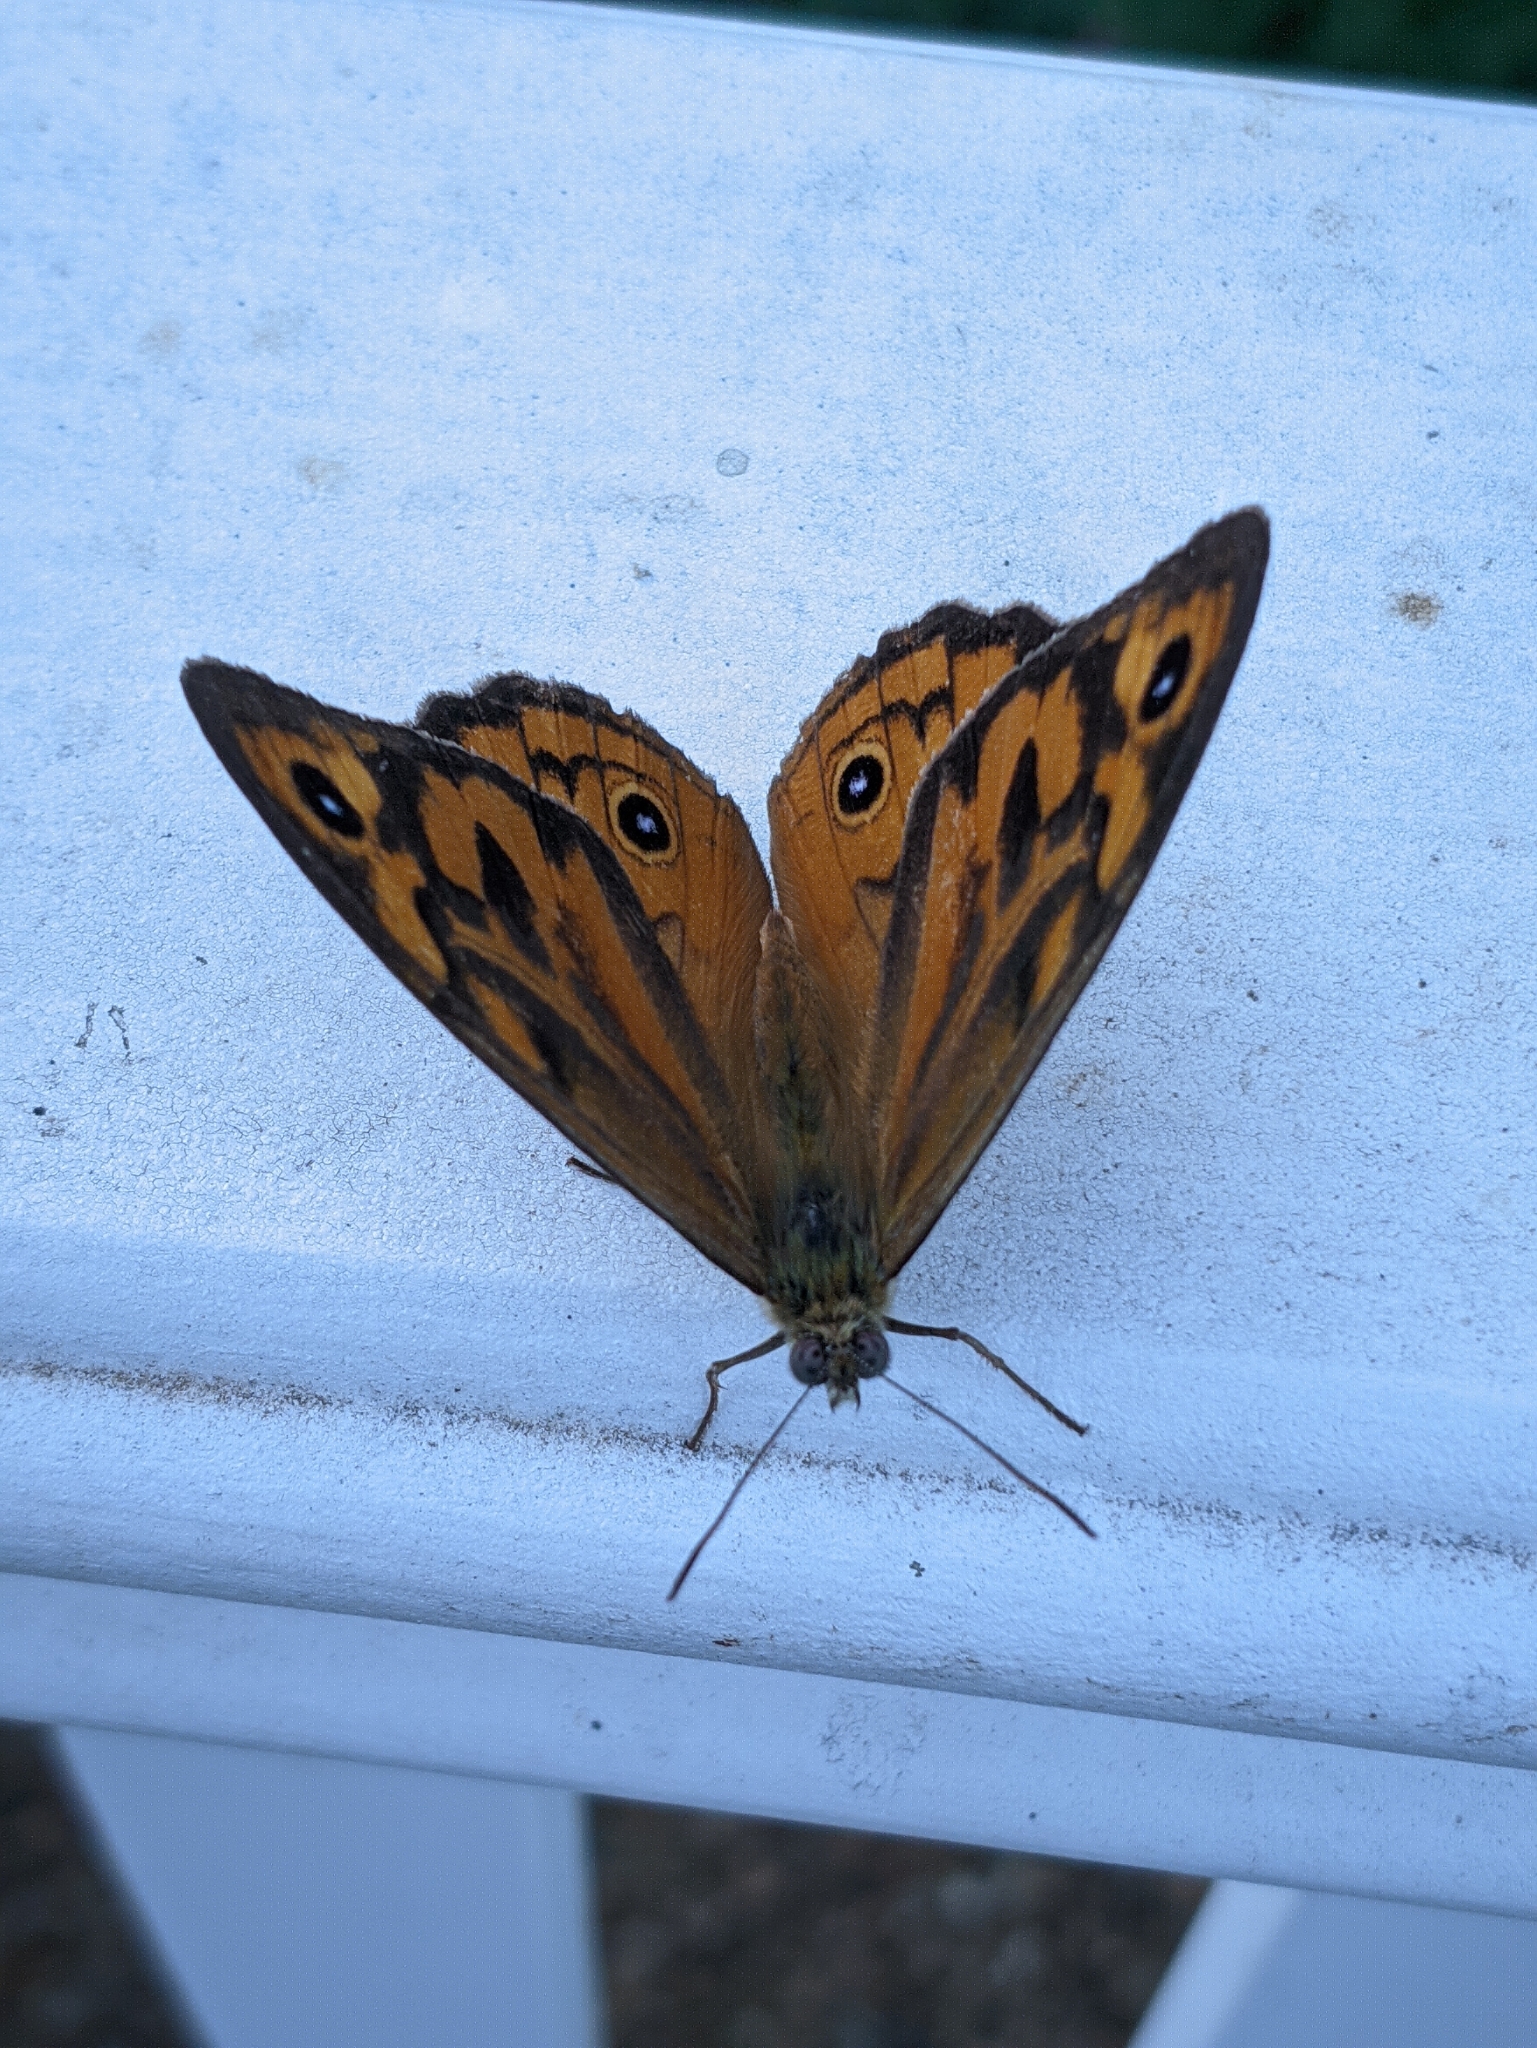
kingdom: Animalia
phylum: Arthropoda
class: Insecta
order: Lepidoptera
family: Nymphalidae
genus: Heteronympha
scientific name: Heteronympha merope
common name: Common brown
